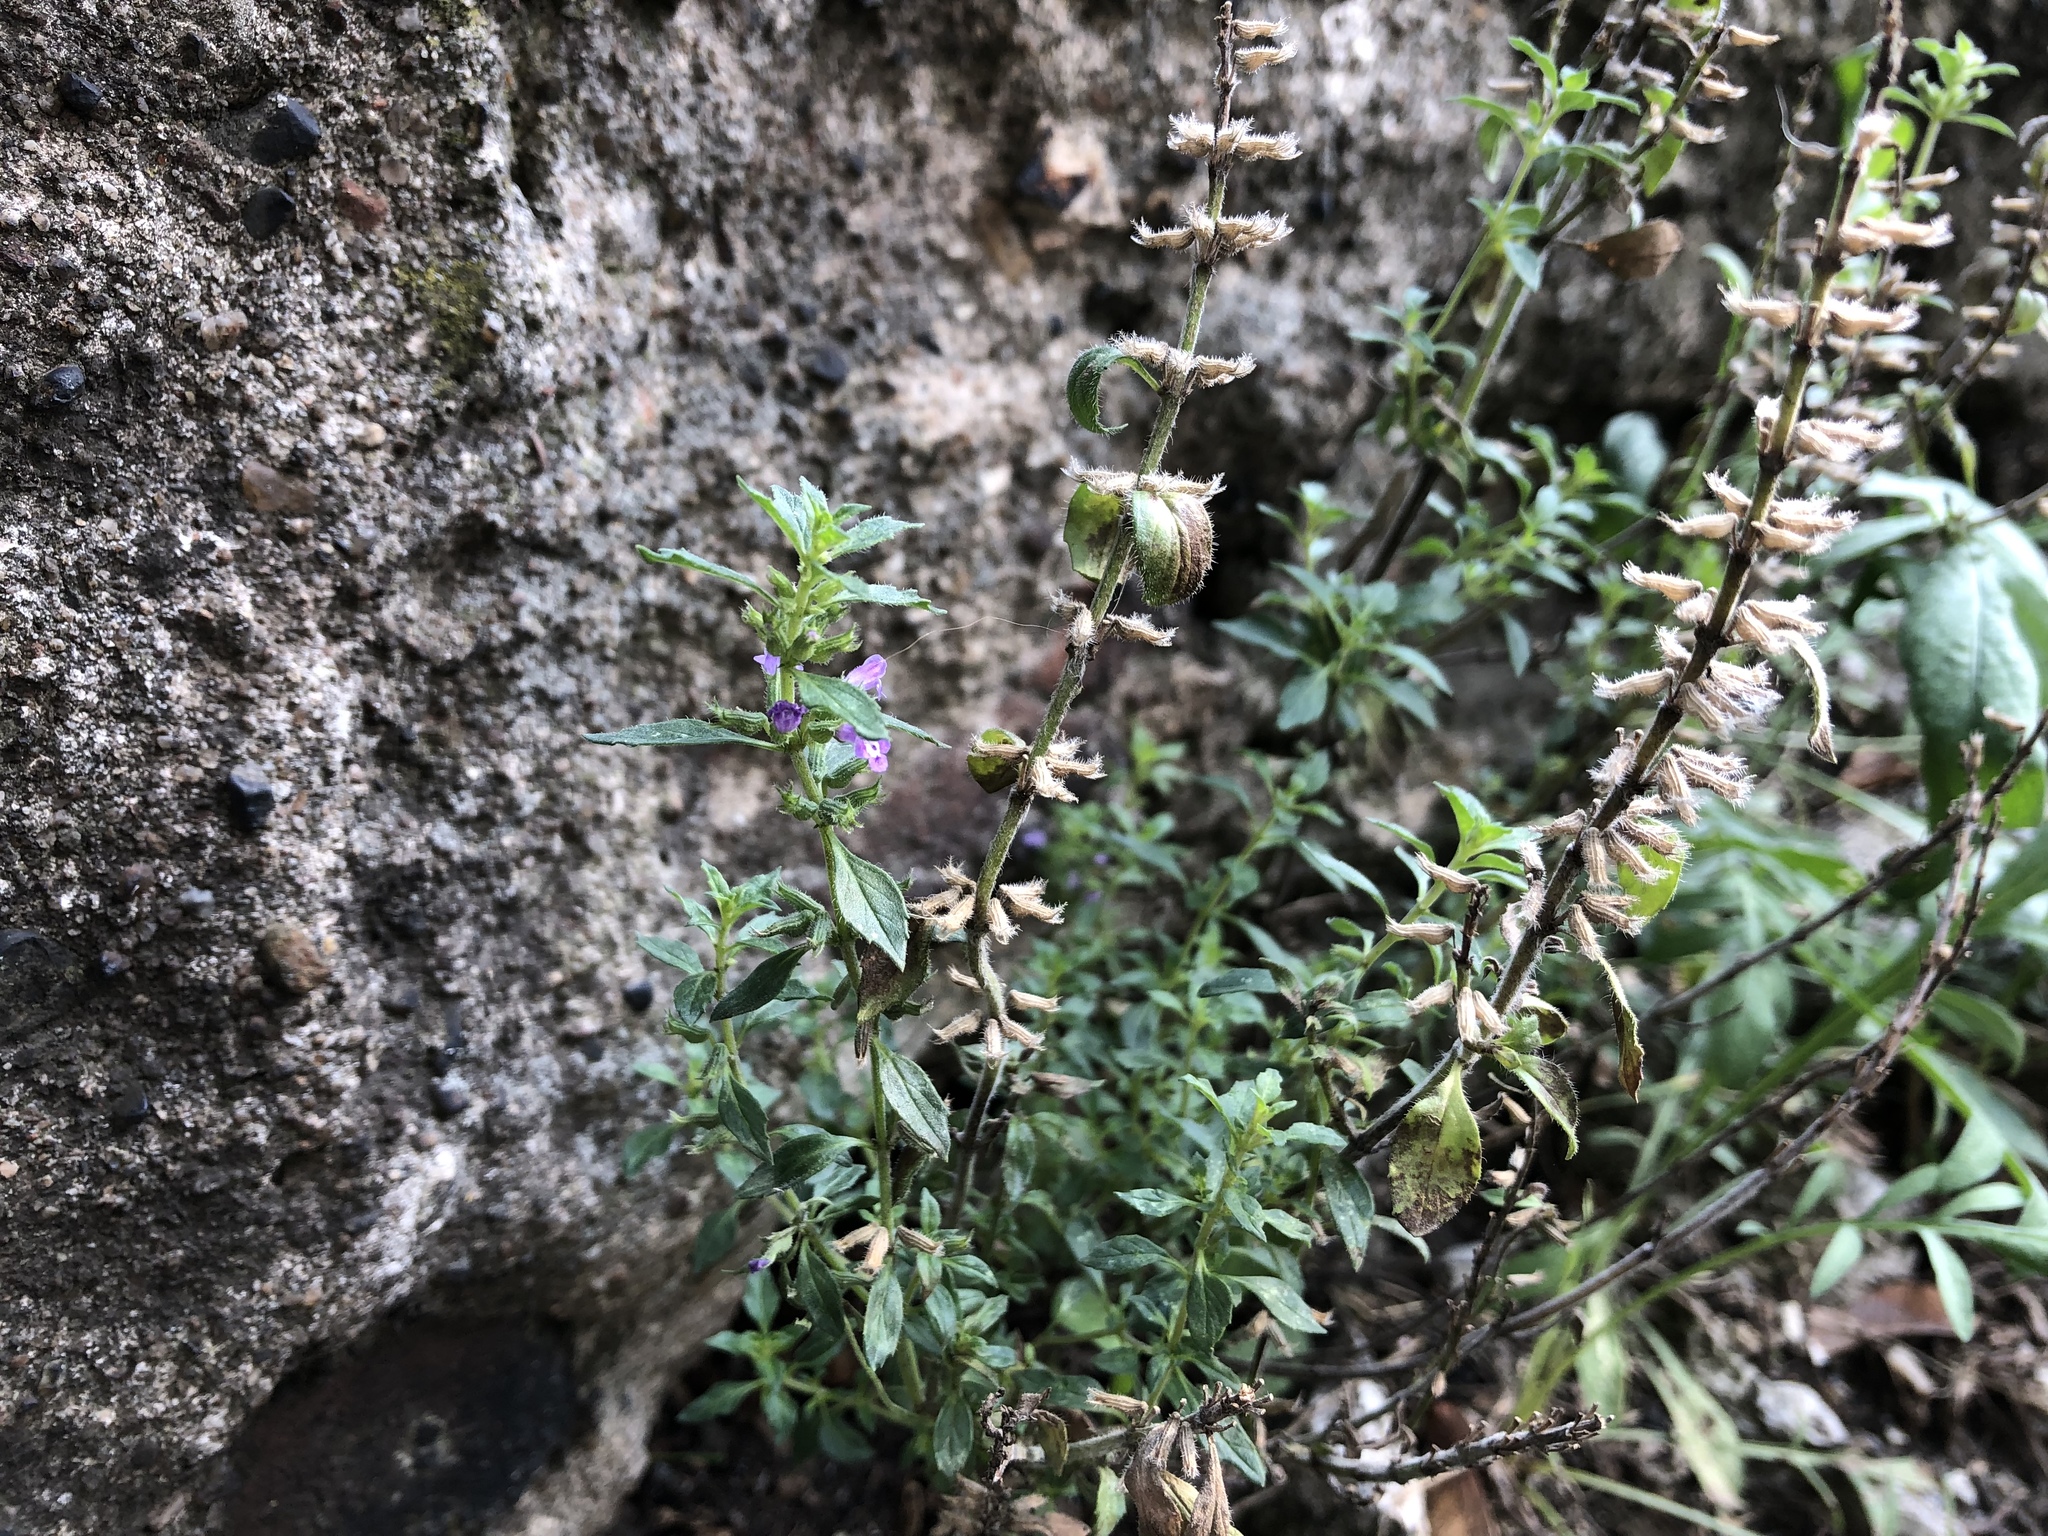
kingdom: Plantae
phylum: Tracheophyta
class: Magnoliopsida
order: Lamiales
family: Lamiaceae
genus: Clinopodium
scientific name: Clinopodium acinos
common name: Basil thyme
